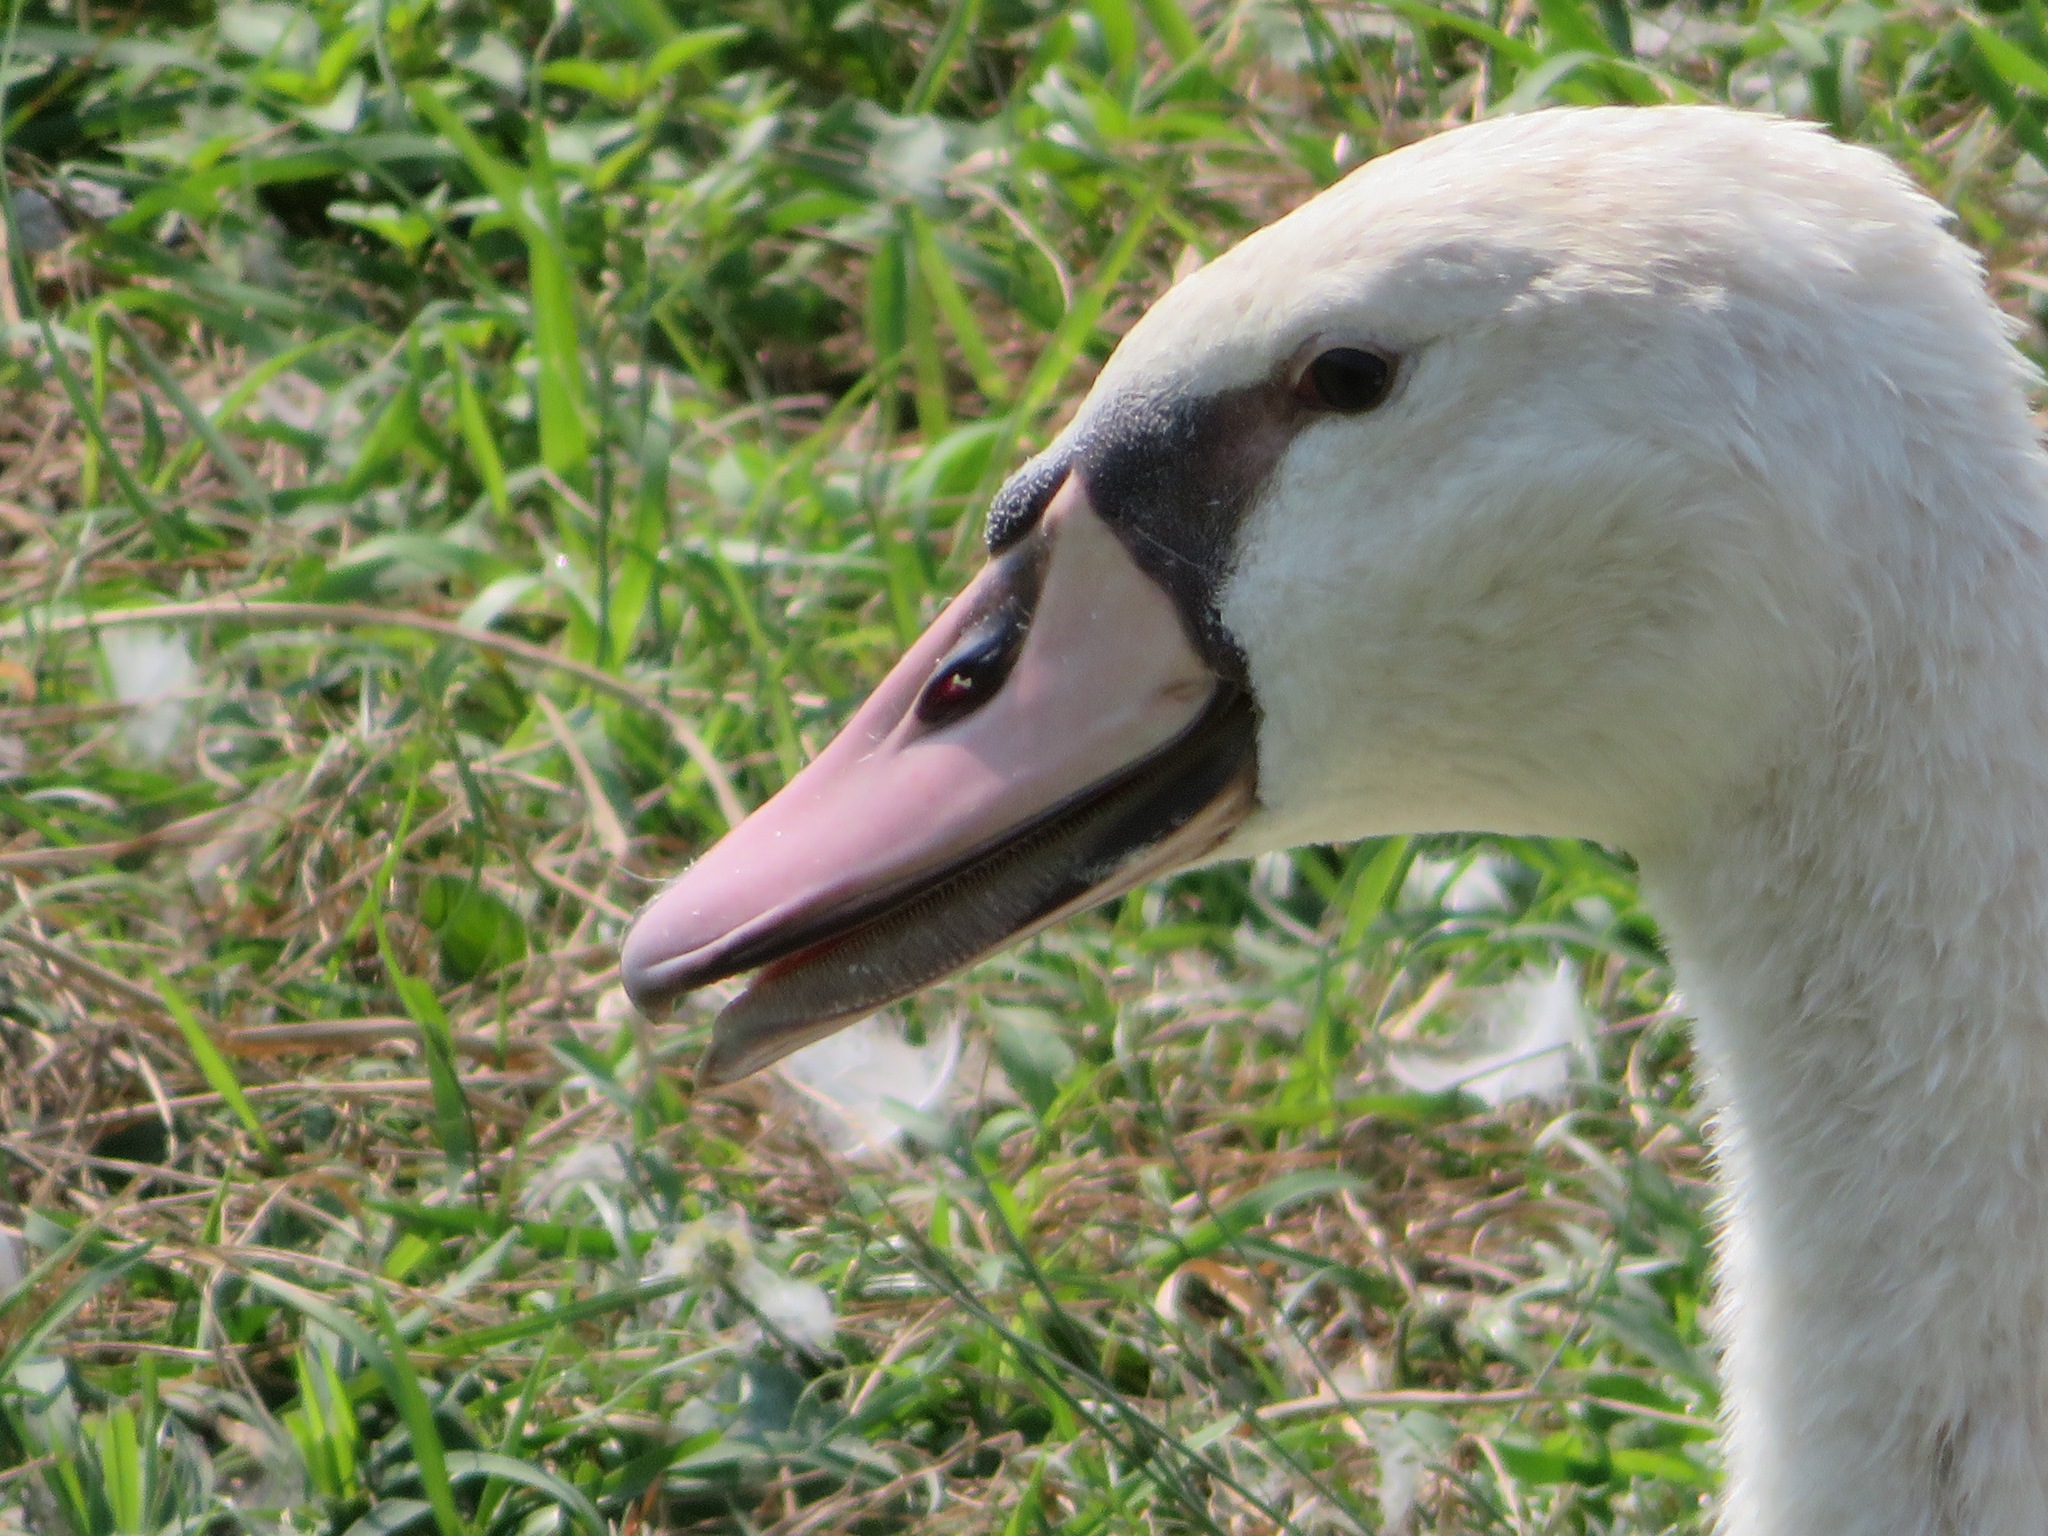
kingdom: Animalia
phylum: Chordata
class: Aves
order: Anseriformes
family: Anatidae
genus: Cygnus
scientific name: Cygnus olor
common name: Mute swan
